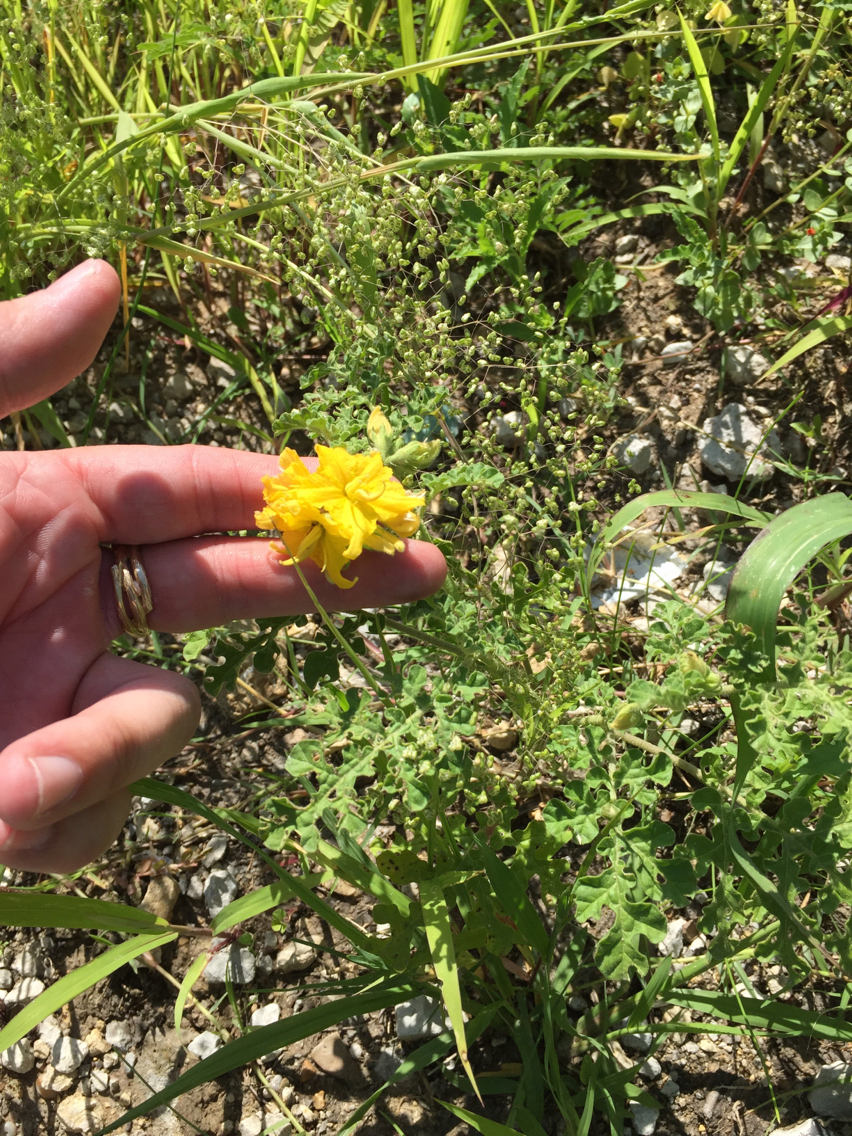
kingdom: Plantae
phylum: Tracheophyta
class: Magnoliopsida
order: Solanales
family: Solanaceae
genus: Solanum
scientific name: Solanum angustifolium
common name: Buffalobur nightshade
